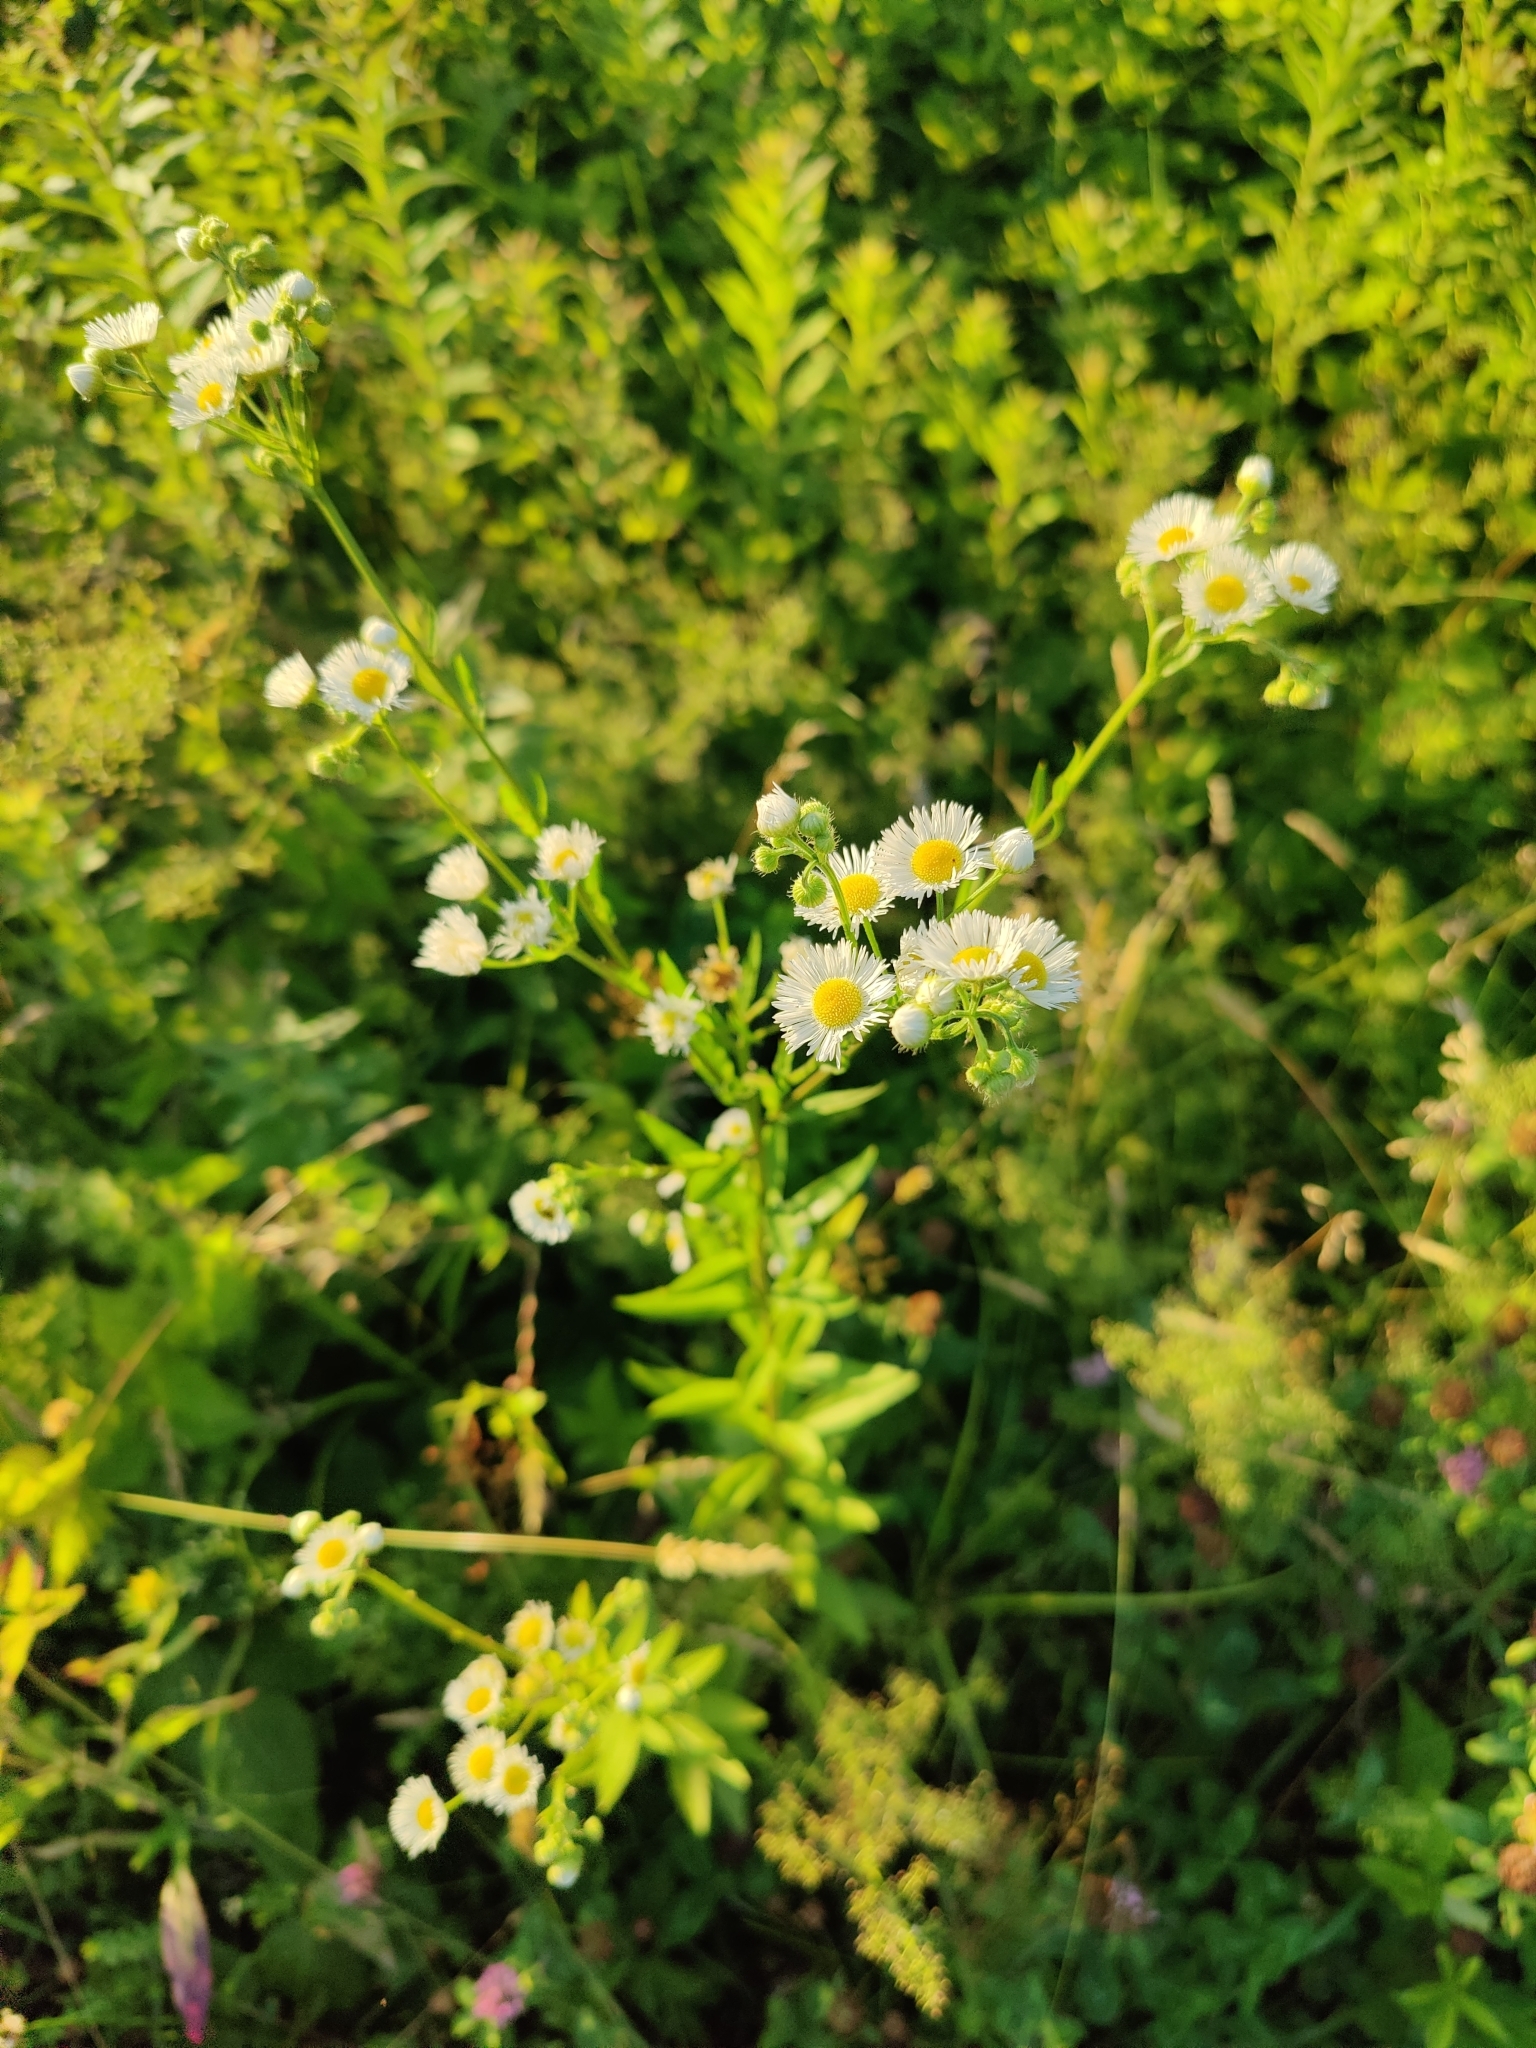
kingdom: Plantae
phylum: Tracheophyta
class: Magnoliopsida
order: Asterales
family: Asteraceae
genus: Erigeron
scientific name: Erigeron annuus
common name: Tall fleabane
